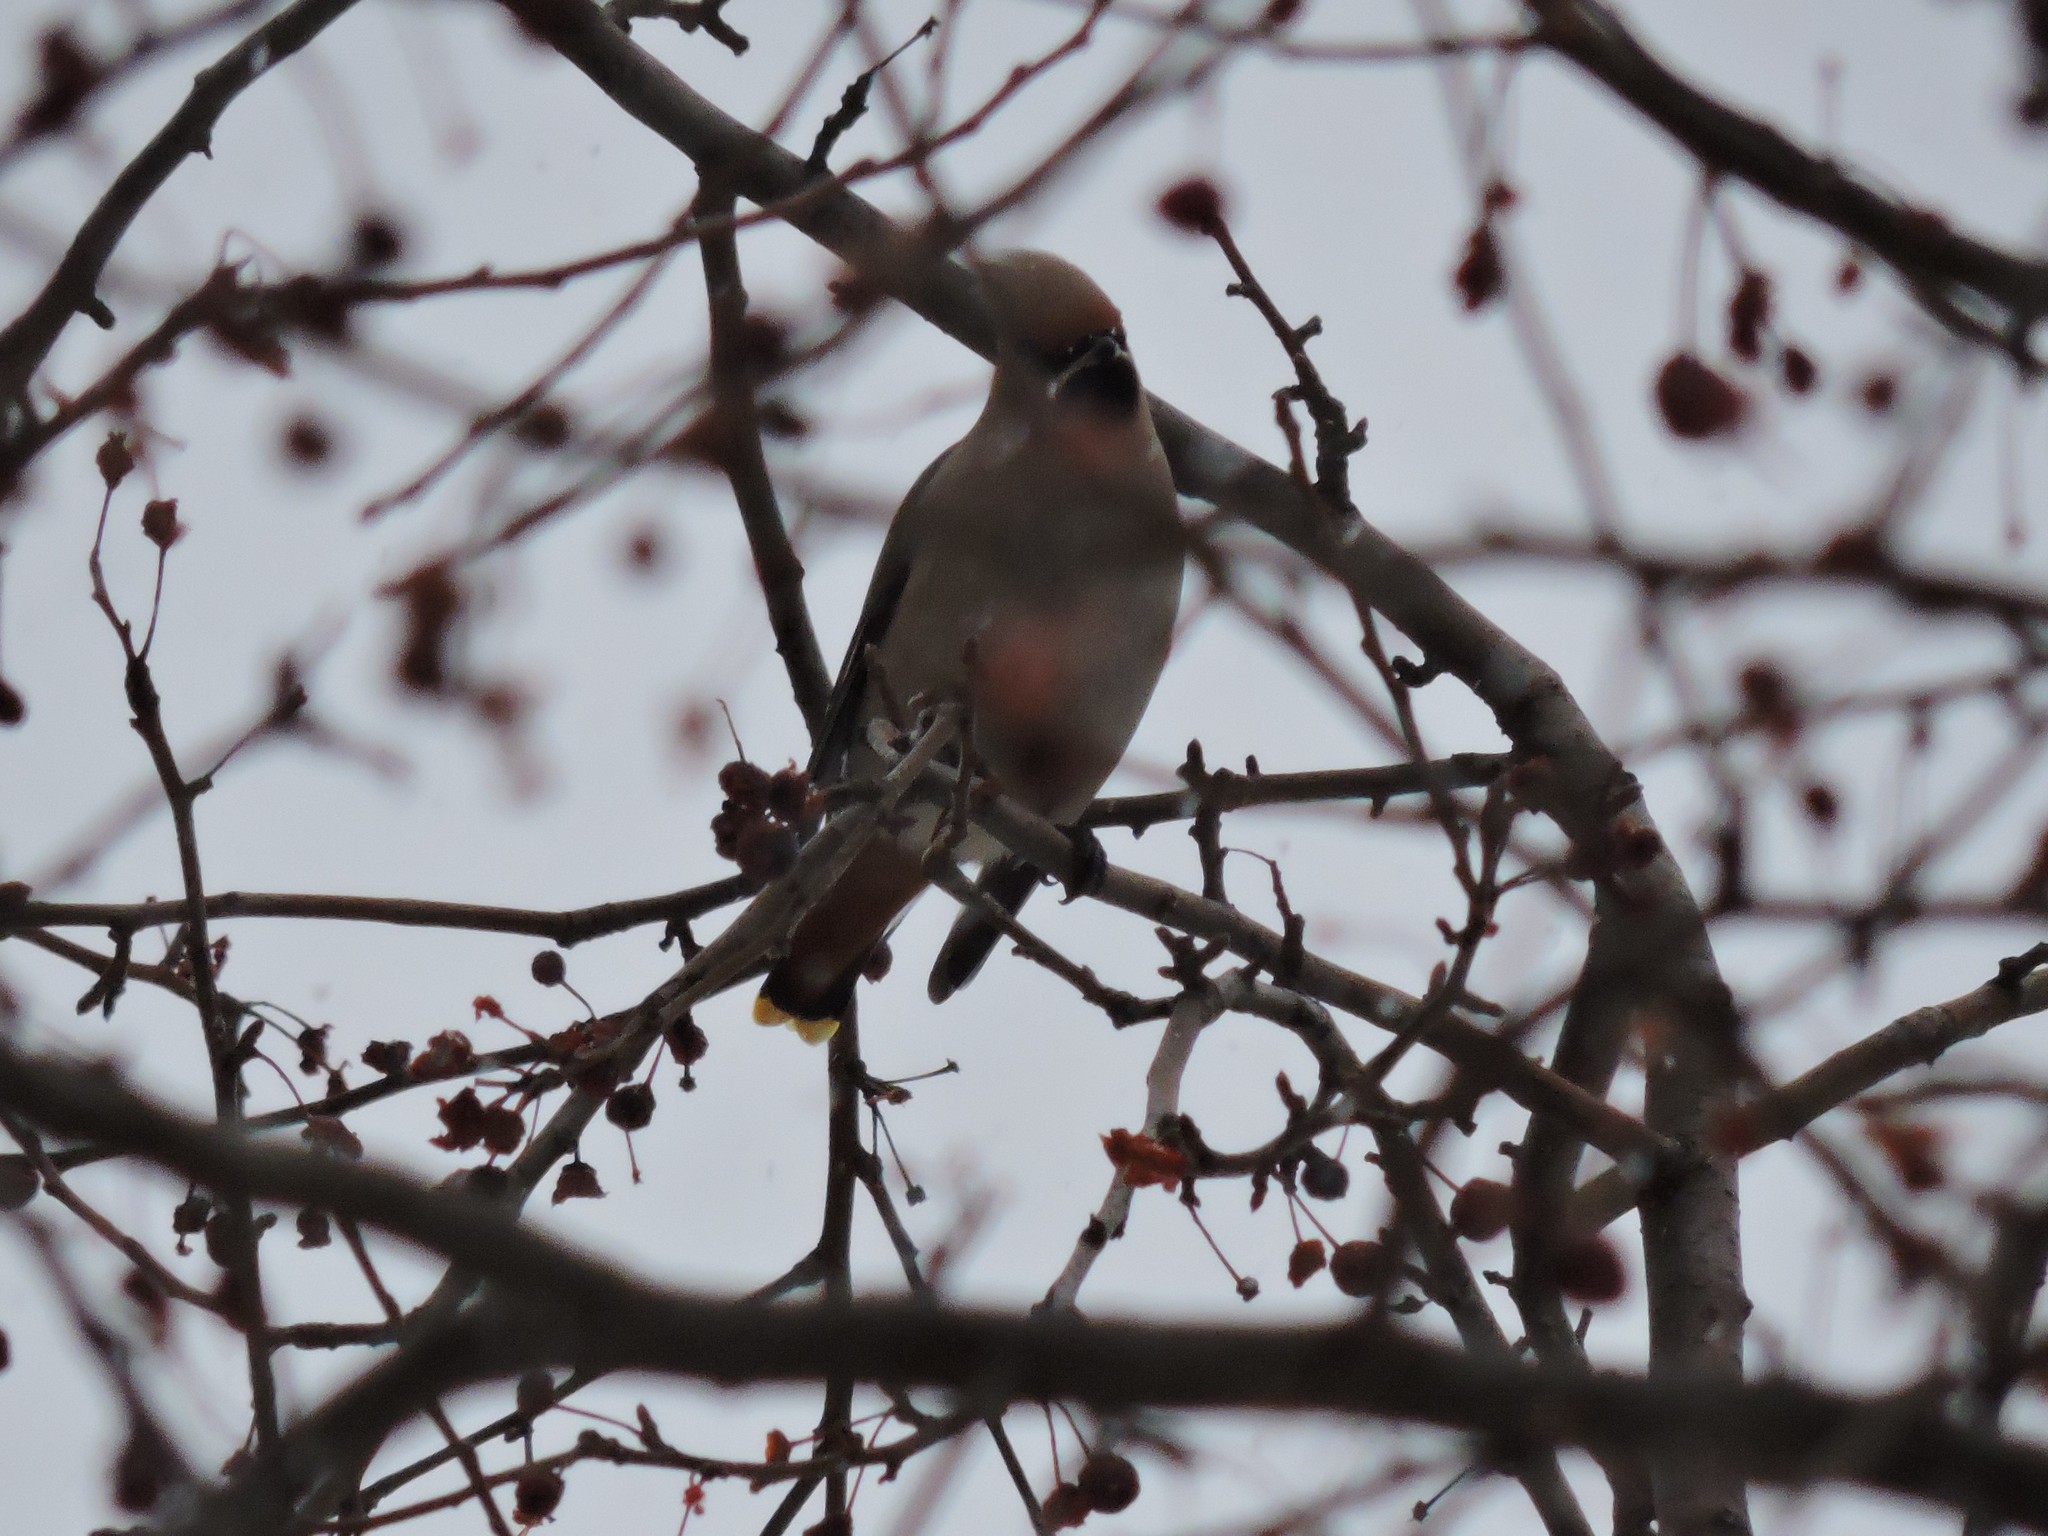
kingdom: Animalia
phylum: Chordata
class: Aves
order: Passeriformes
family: Bombycillidae
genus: Bombycilla
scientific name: Bombycilla garrulus
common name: Bohemian waxwing
